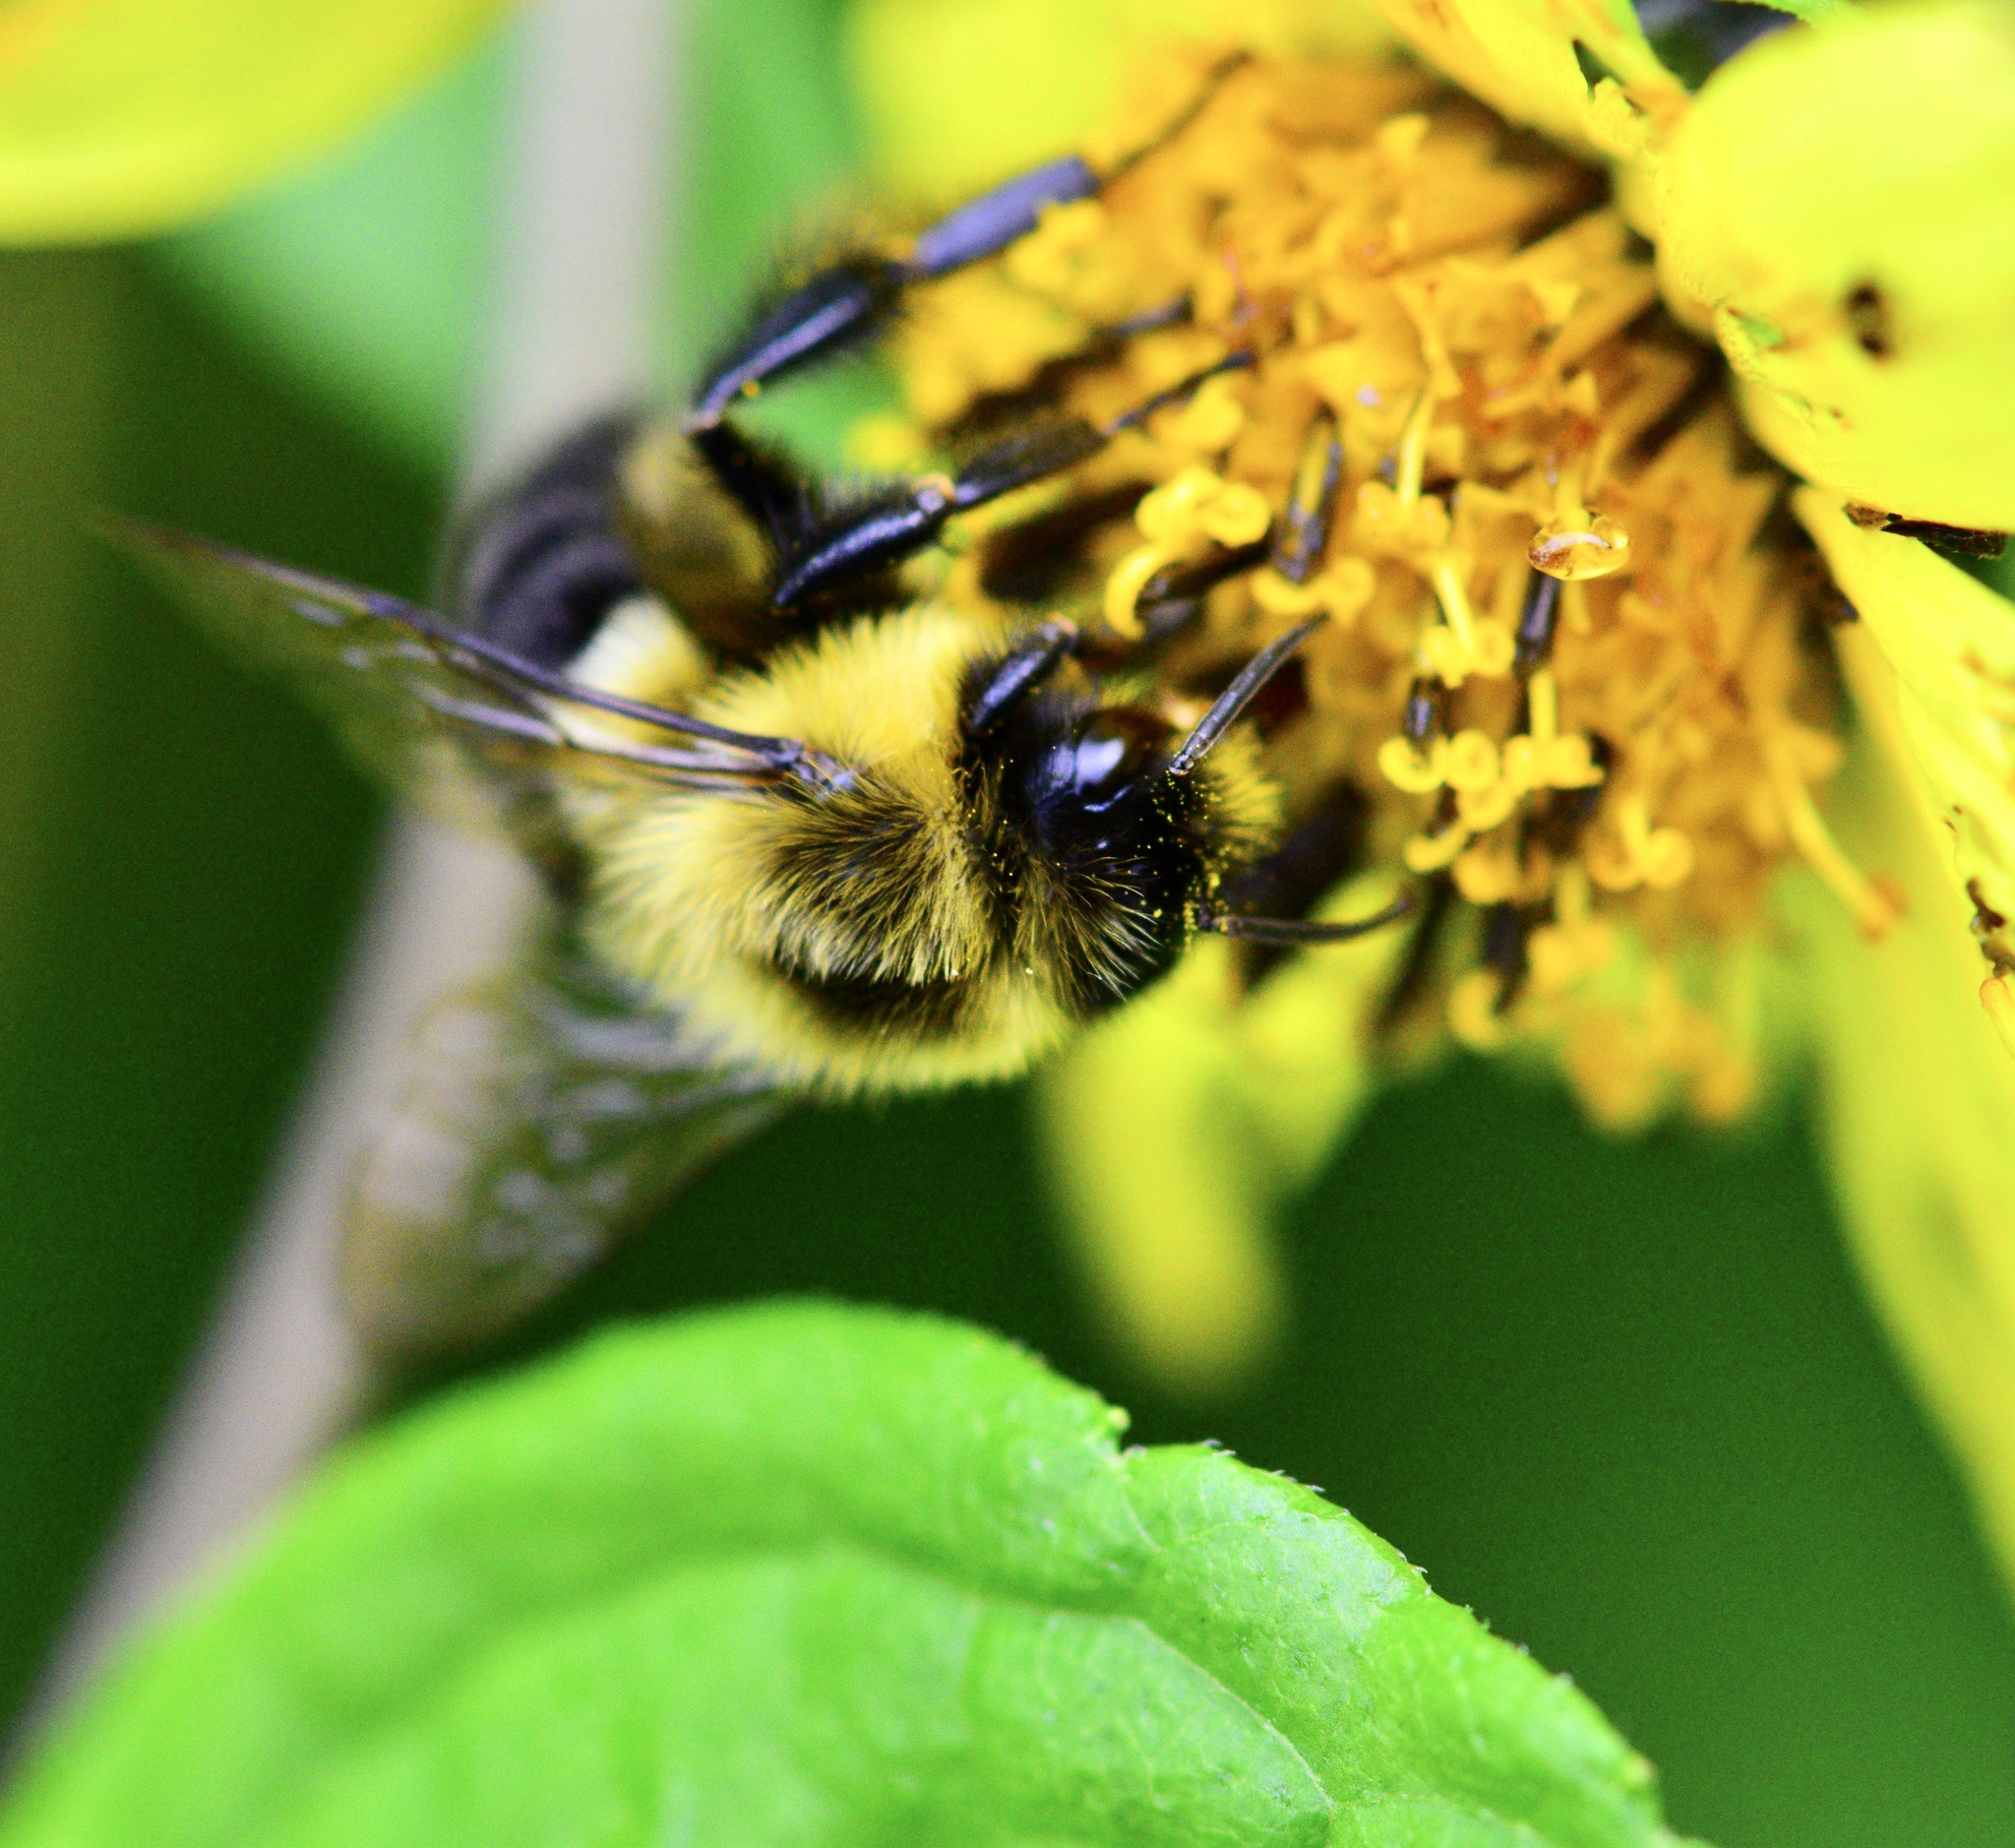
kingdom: Animalia
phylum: Arthropoda
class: Insecta
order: Hymenoptera
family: Apidae
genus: Bombus
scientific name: Bombus impatiens
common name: Common eastern bumble bee
